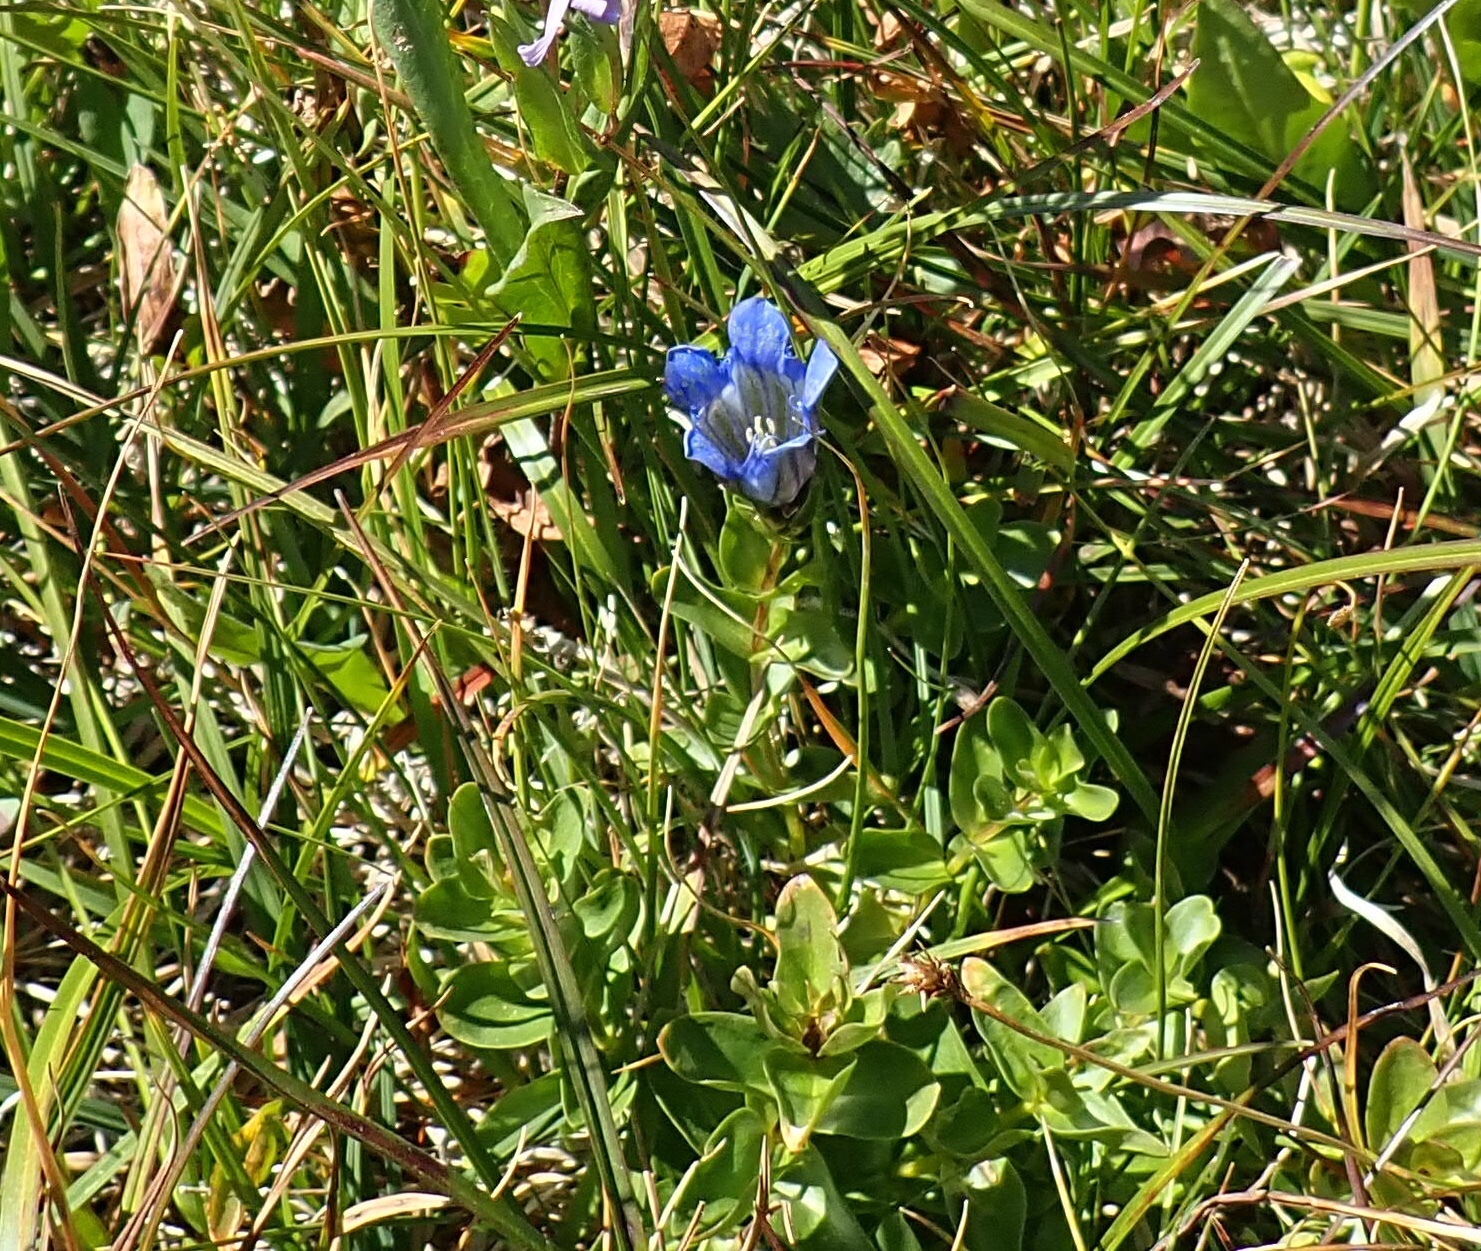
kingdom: Plantae
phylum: Tracheophyta
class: Magnoliopsida
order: Gentianales
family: Gentianaceae
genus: Gentiana
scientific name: Gentiana calycosa
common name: Rainier pleated gentian
